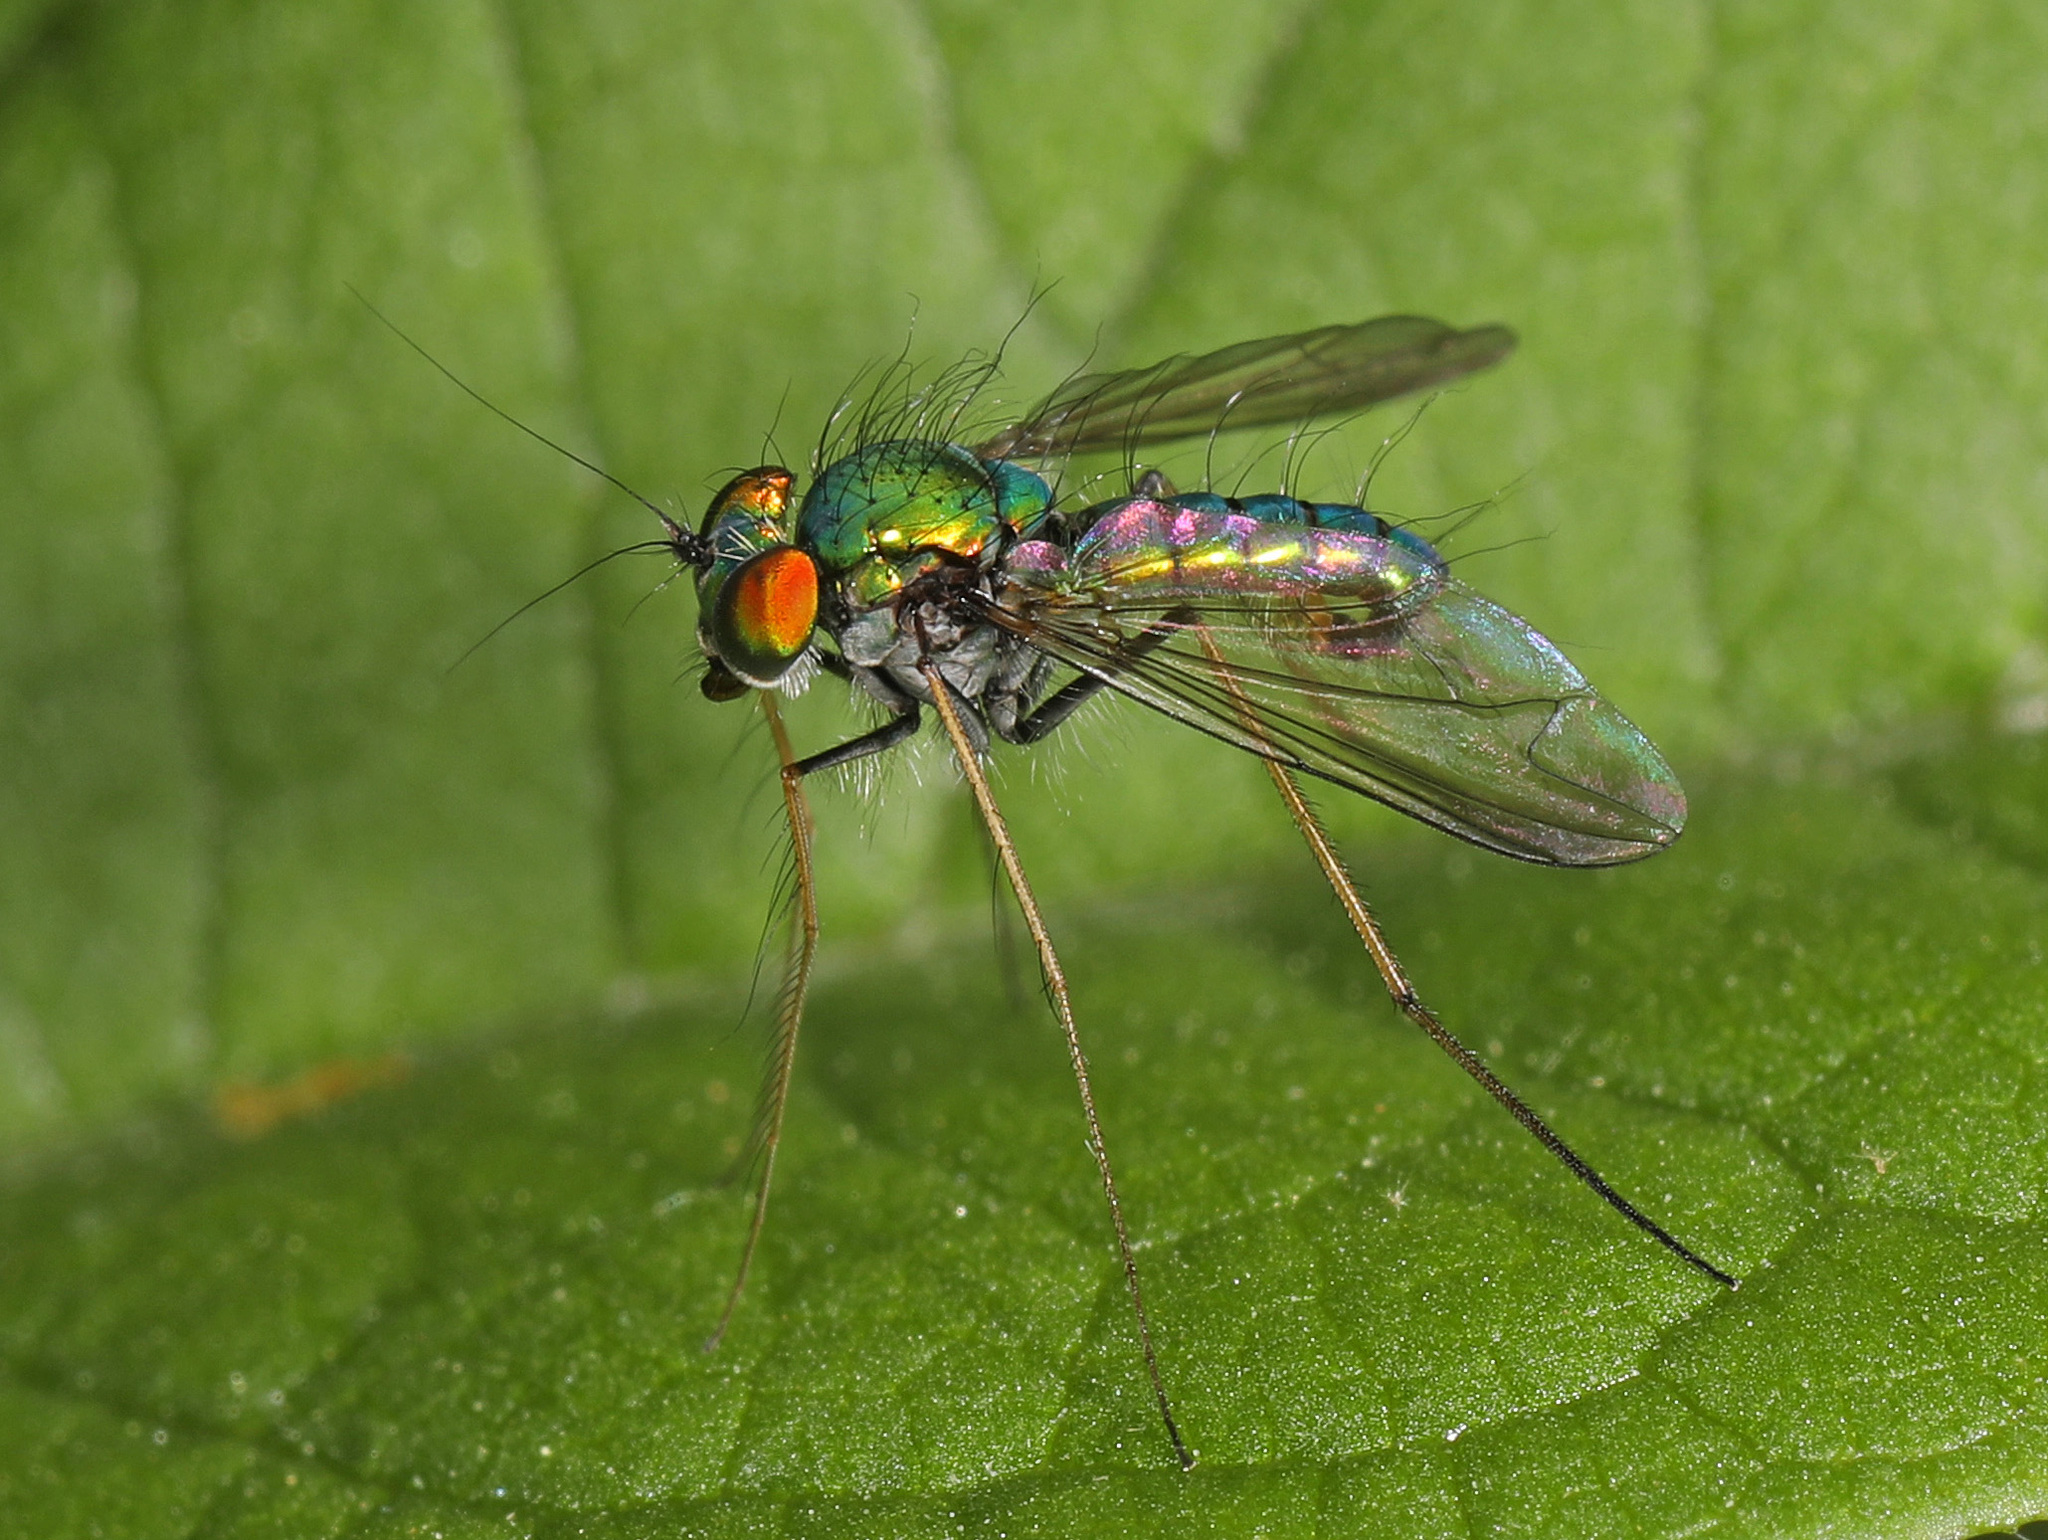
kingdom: Animalia
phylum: Arthropoda
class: Insecta
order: Diptera
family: Dolichopodidae
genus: Condylostylus
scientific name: Condylostylus comatus
